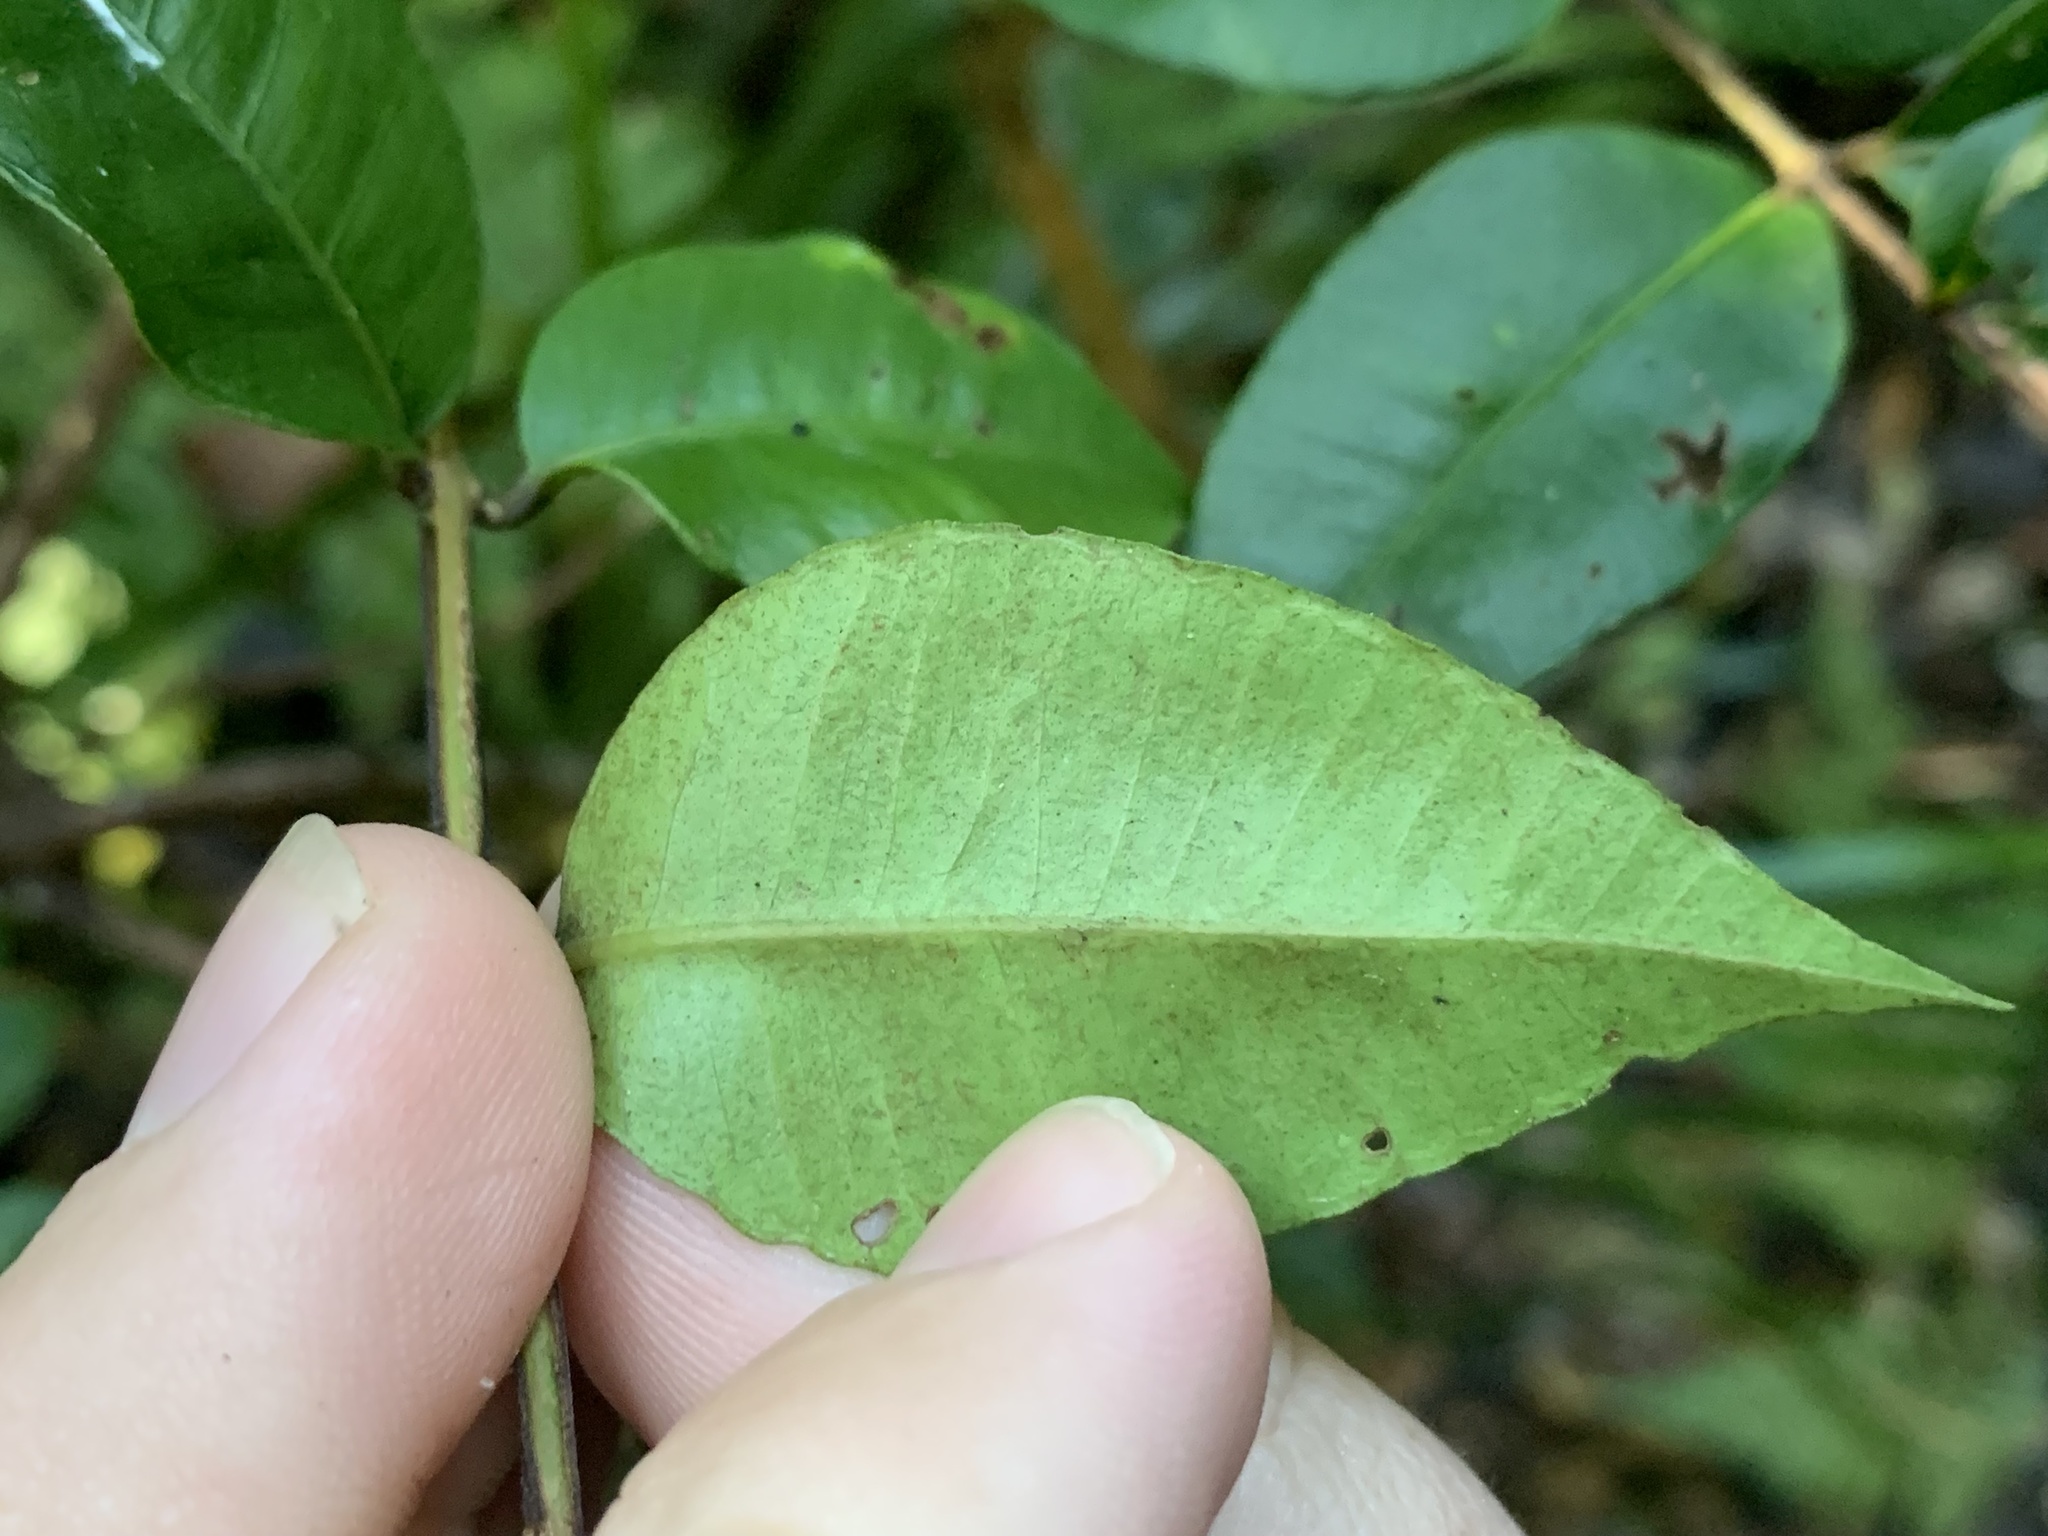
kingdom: Plantae
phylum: Tracheophyta
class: Magnoliopsida
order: Myrtales
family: Myrtaceae
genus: Backhousia
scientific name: Backhousia myrtifolia
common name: Carrol
